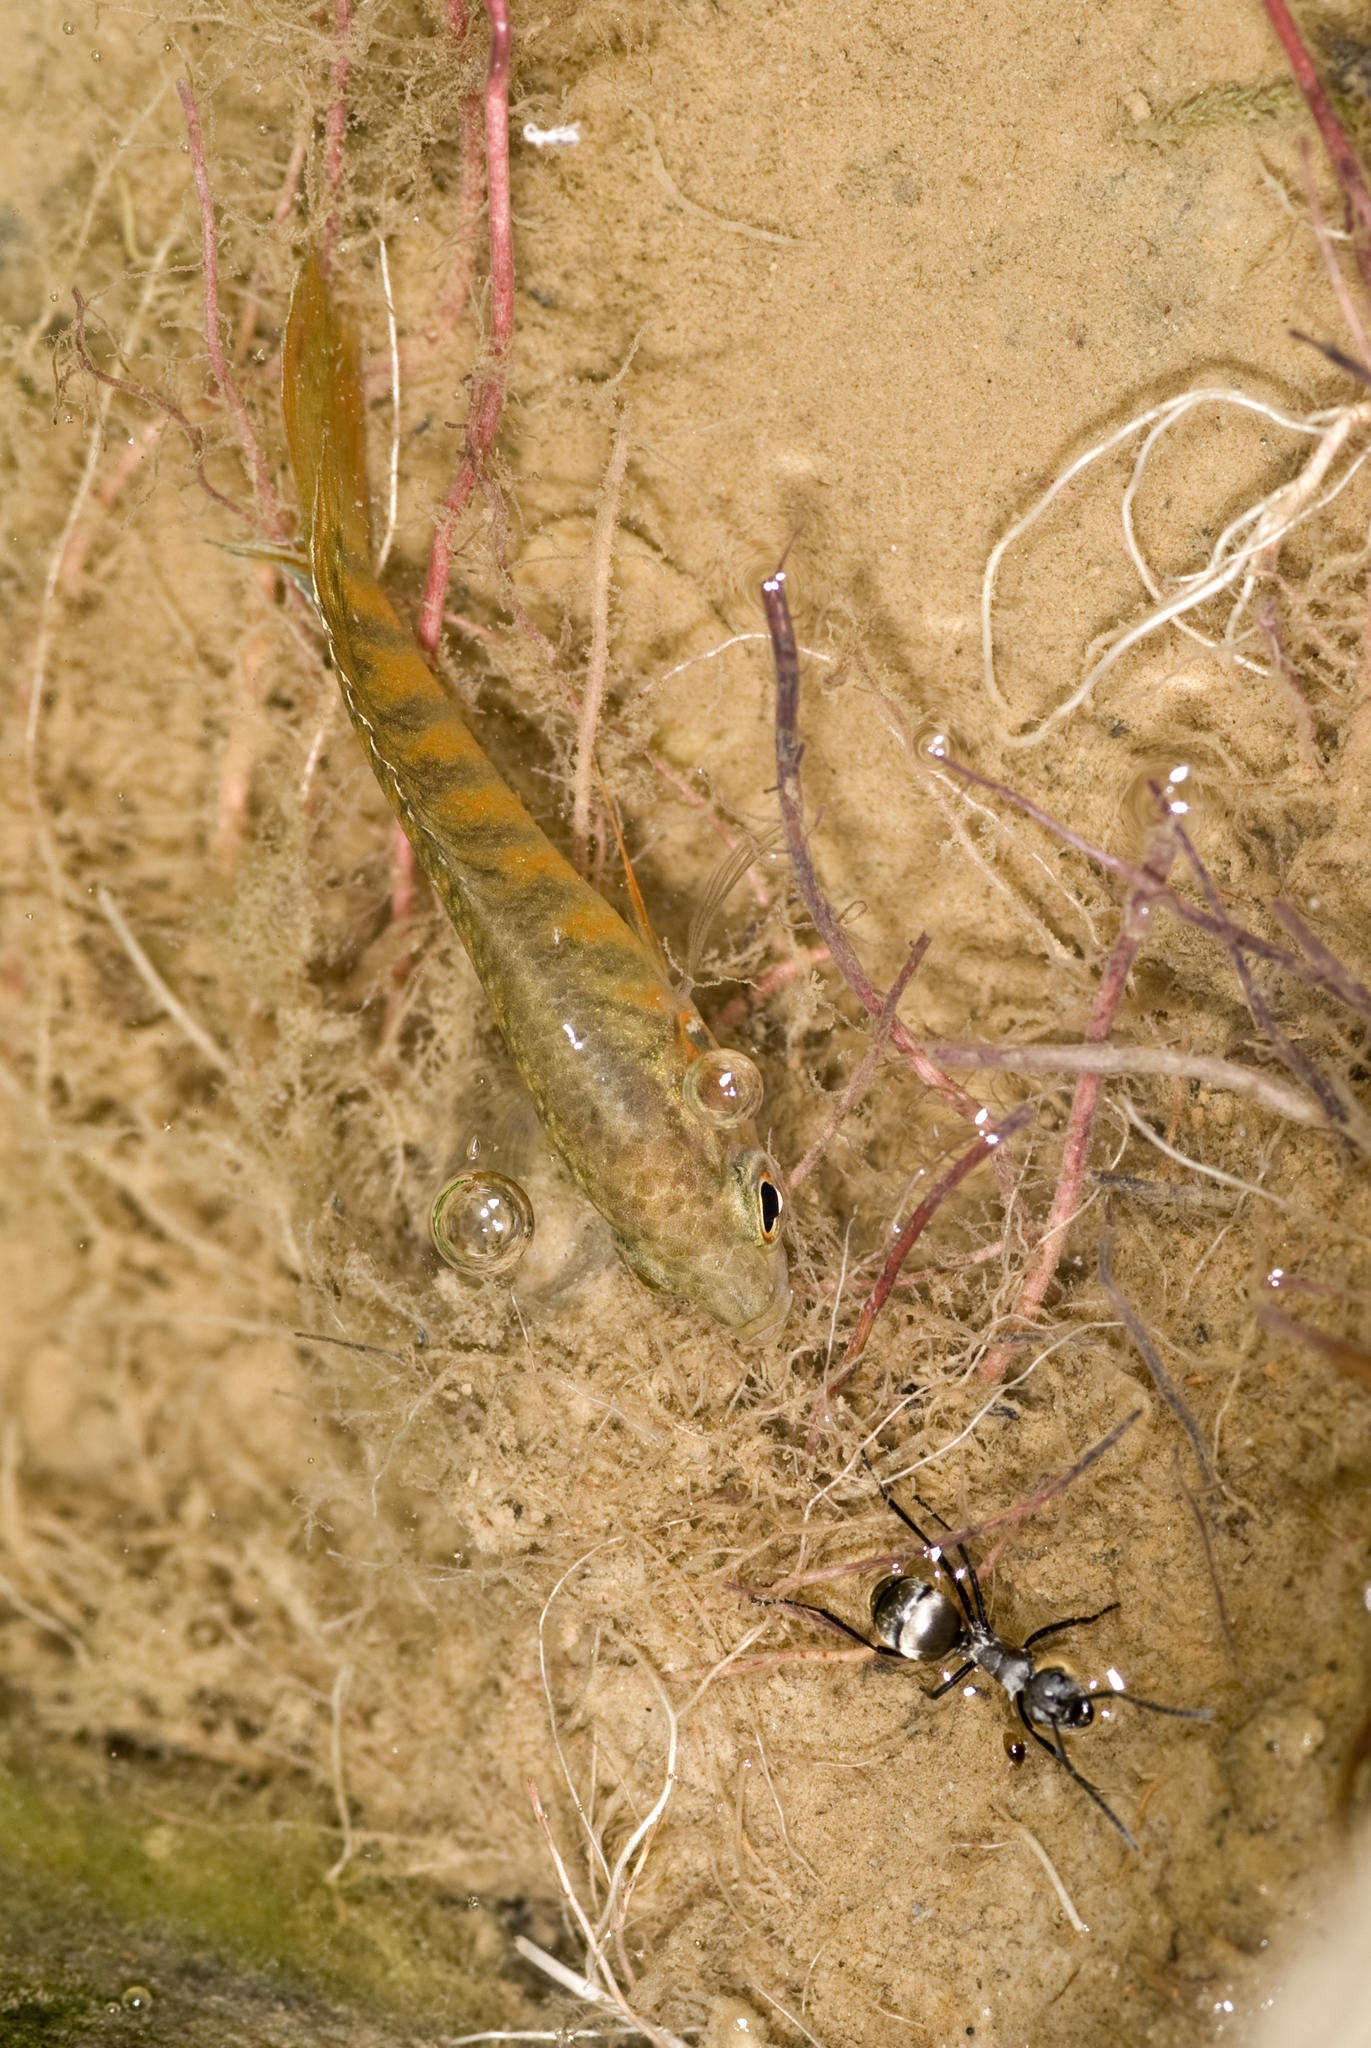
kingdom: Animalia
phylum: Chordata
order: Perciformes
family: Osphronemidae
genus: Macropodus
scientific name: Macropodus opercularis
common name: Paradise fish
